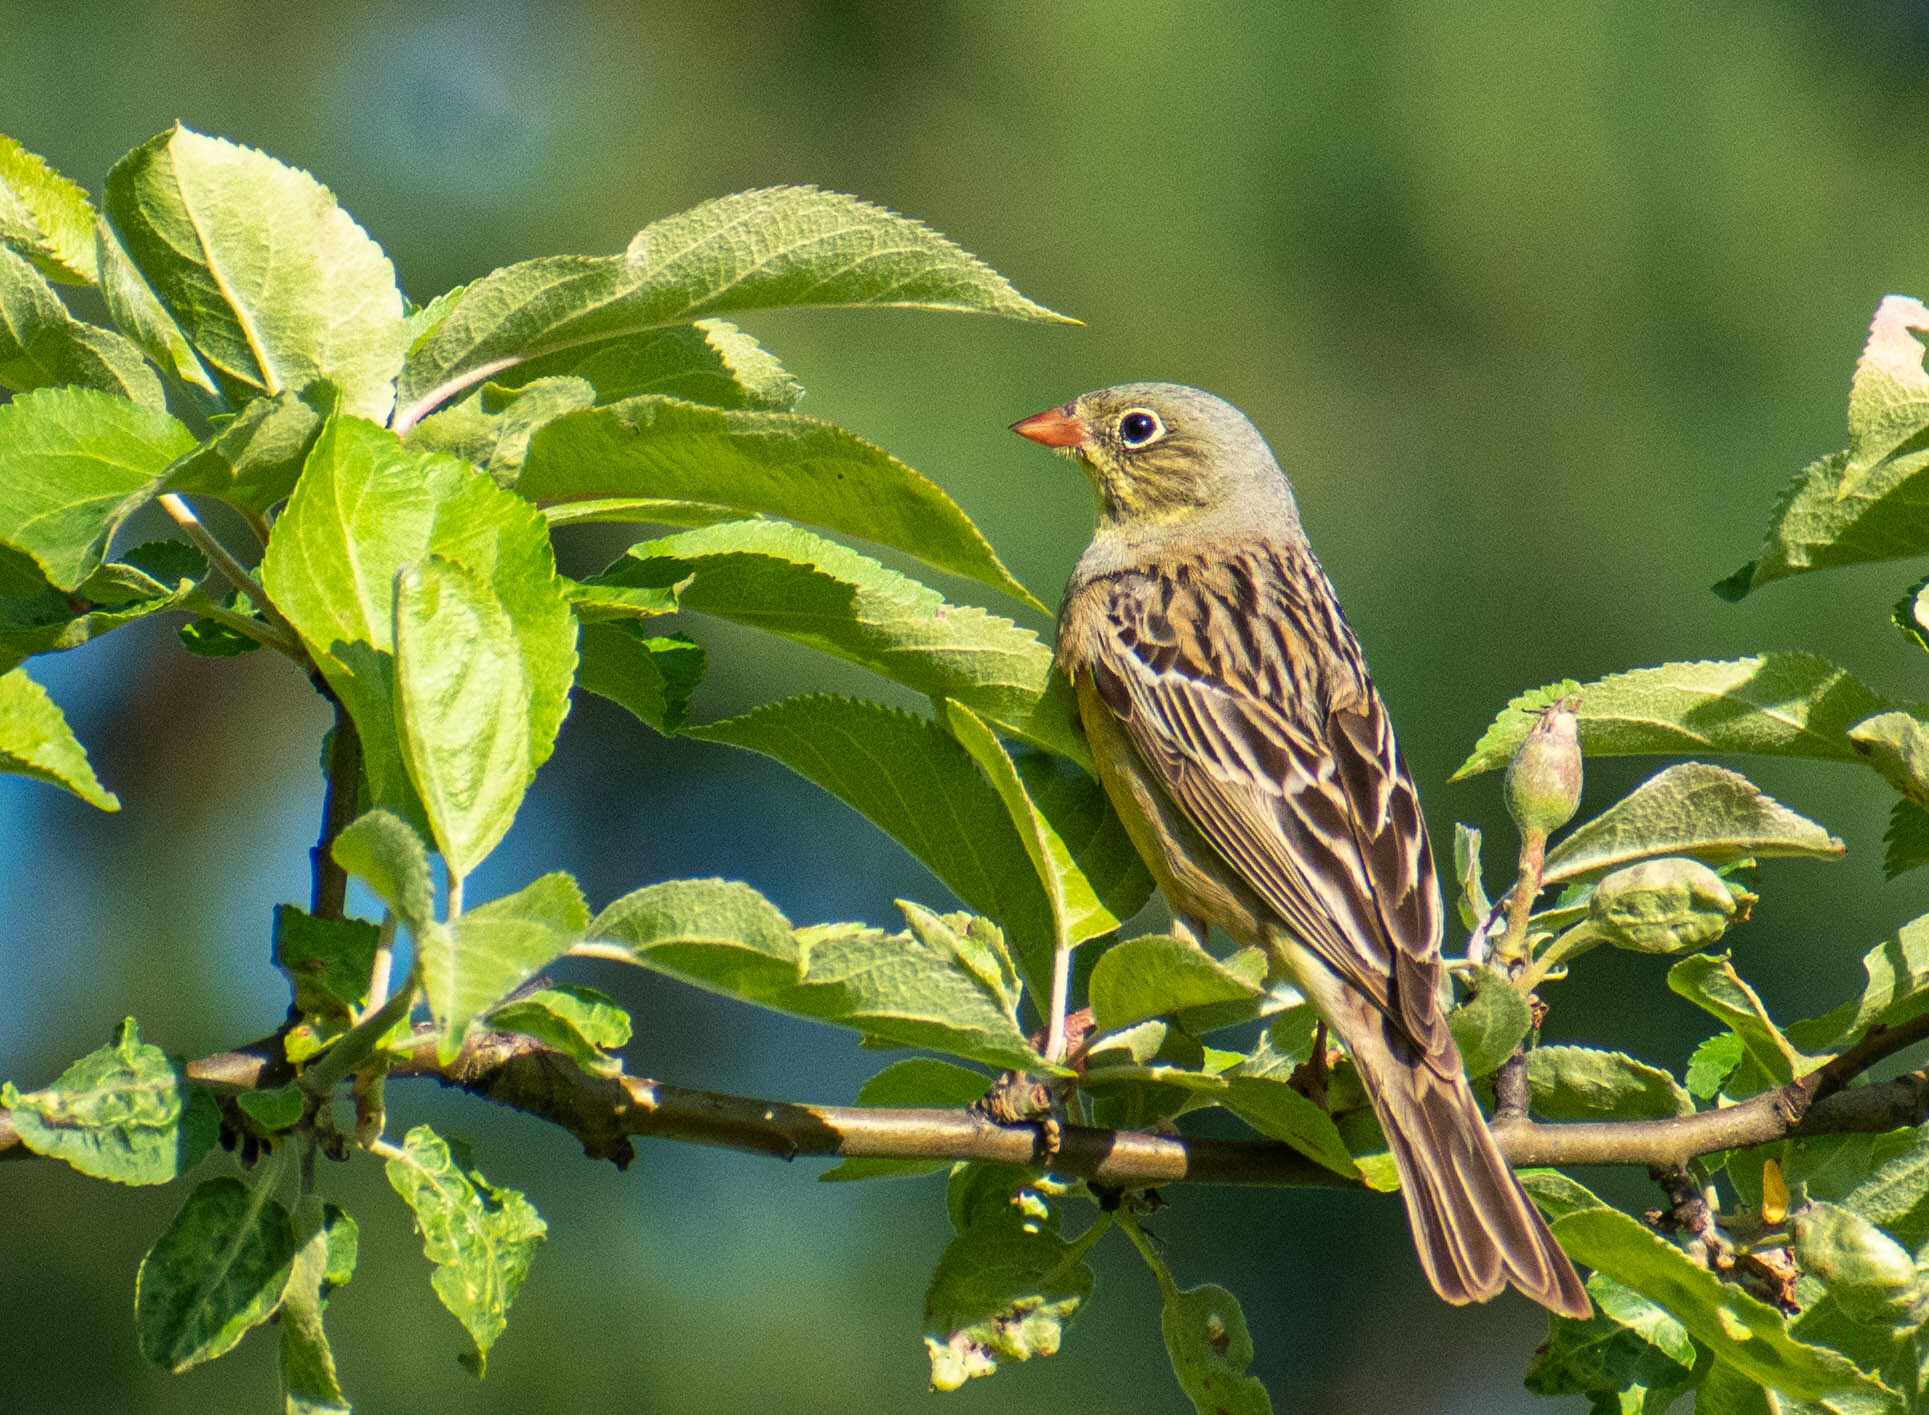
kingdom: Animalia
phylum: Chordata
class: Aves
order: Passeriformes
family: Emberizidae
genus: Emberiza
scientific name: Emberiza hortulana
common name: Ortolan bunting
